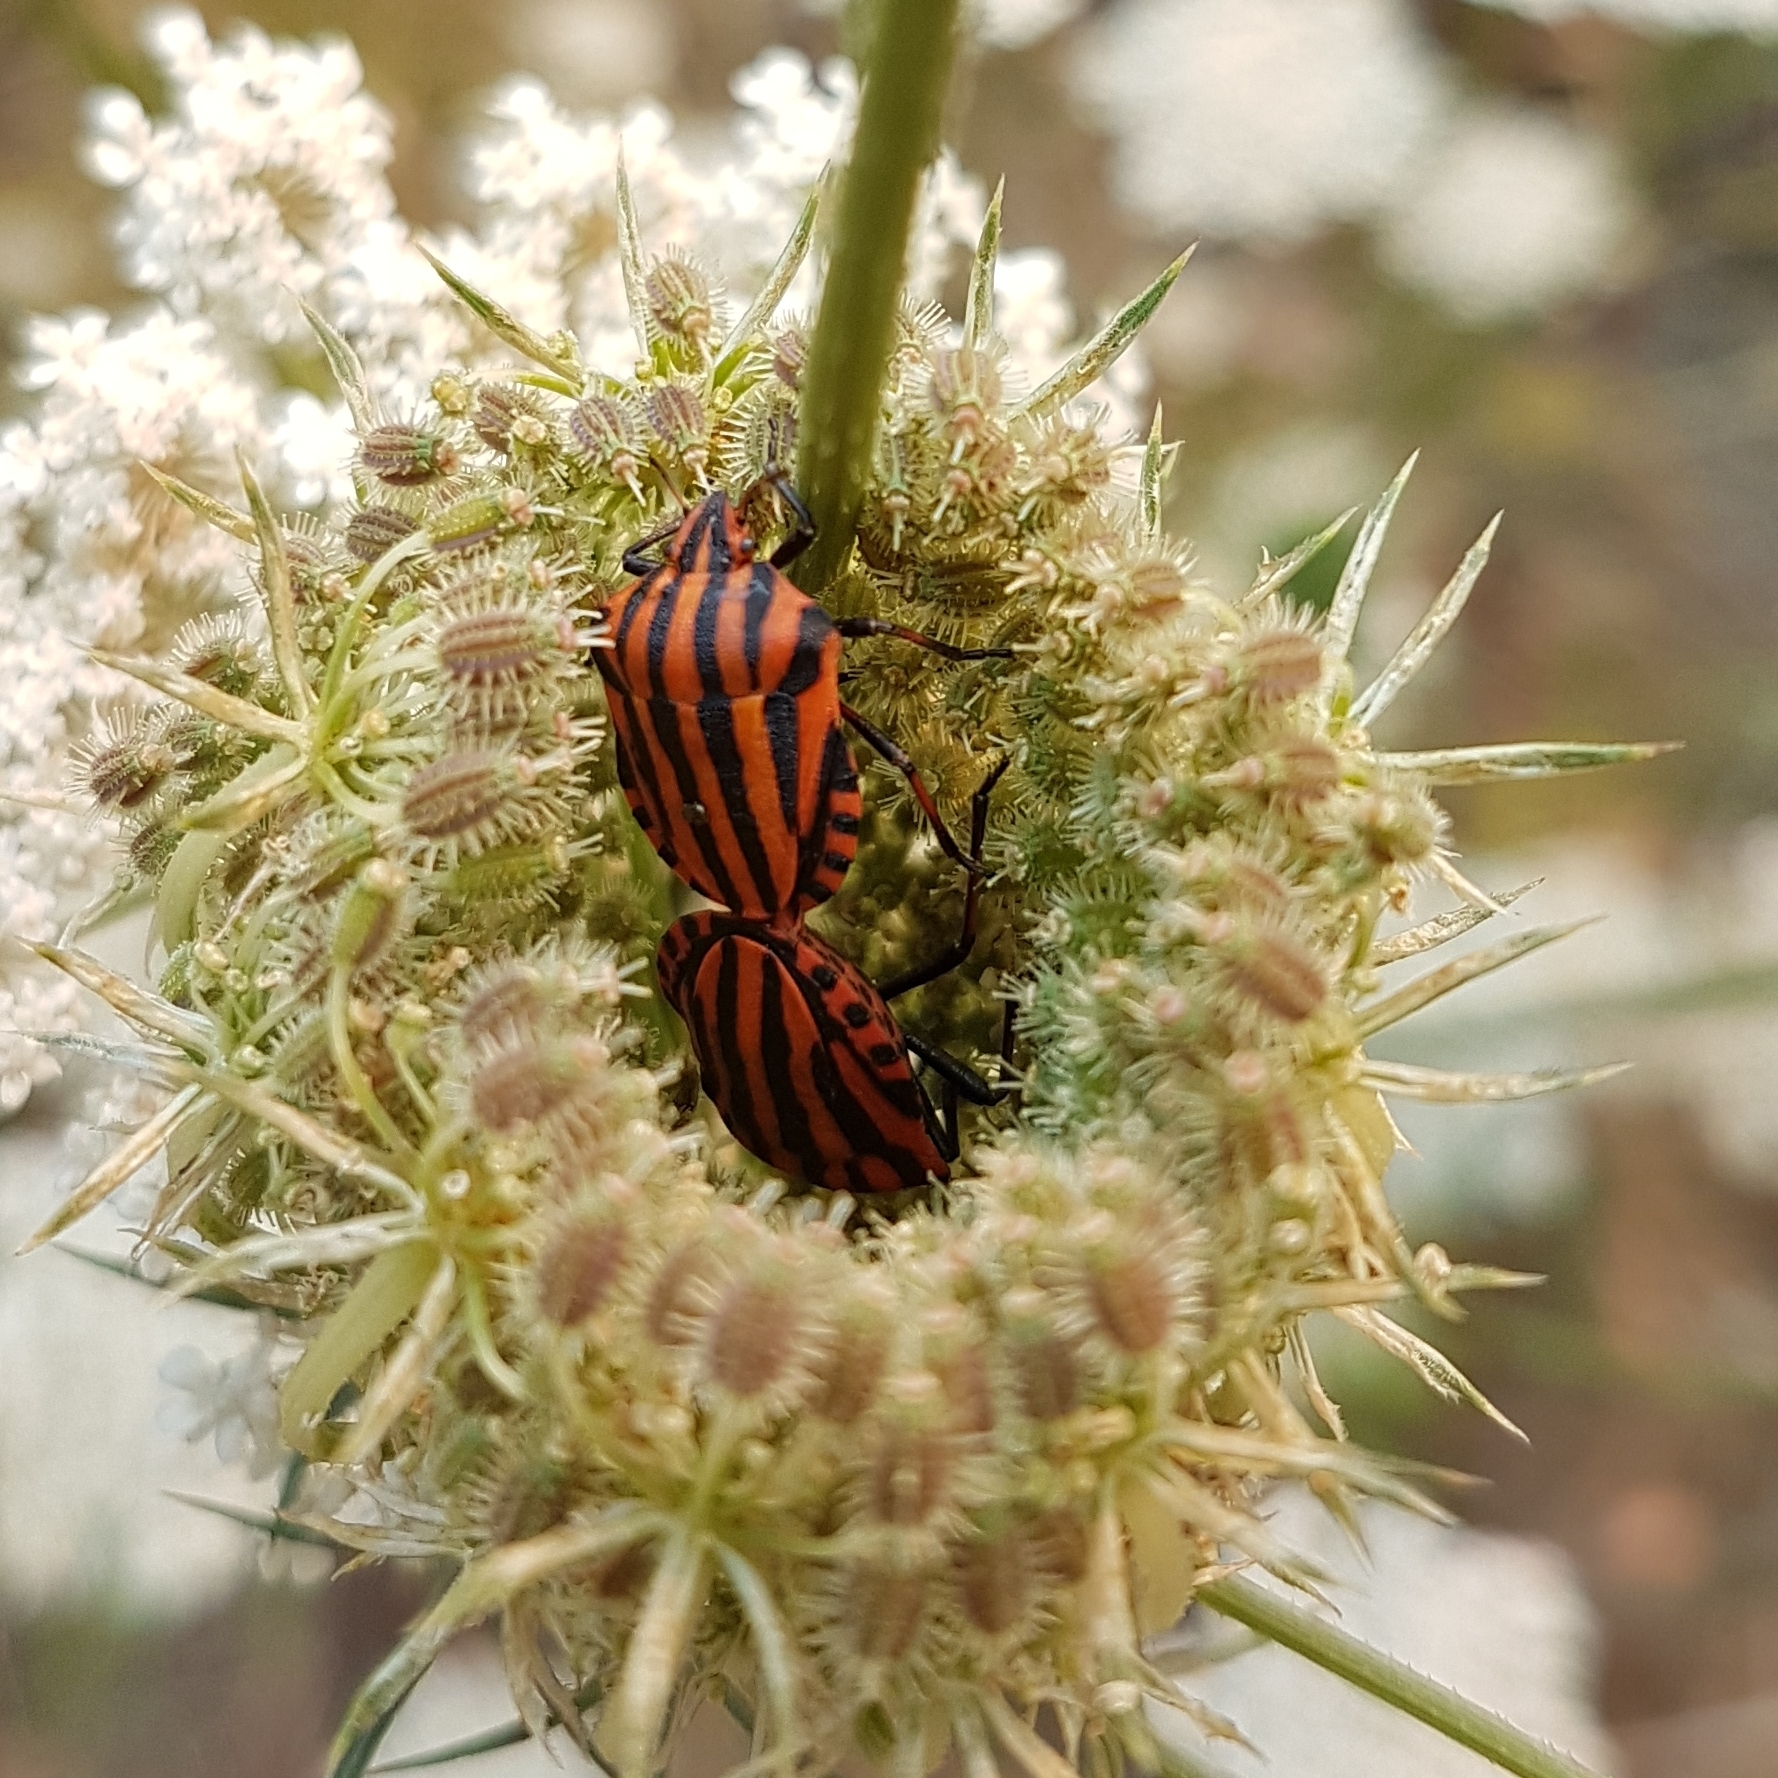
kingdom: Animalia
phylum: Arthropoda
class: Insecta
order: Hemiptera
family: Pentatomidae
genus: Graphosoma
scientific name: Graphosoma italicum
